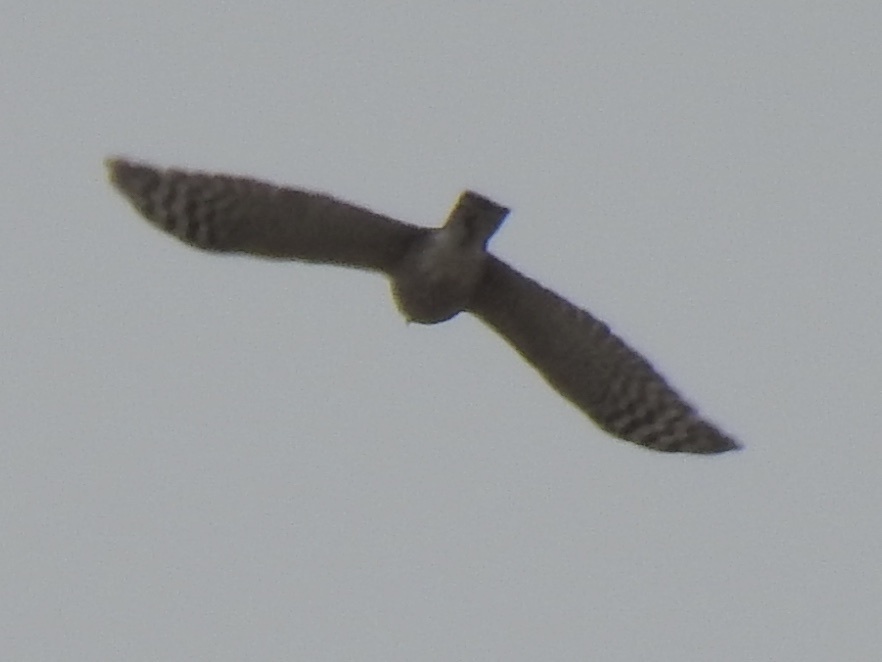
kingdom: Animalia
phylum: Chordata
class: Aves
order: Accipitriformes
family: Accipitridae
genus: Accipiter
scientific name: Accipiter cooperii
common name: Cooper's hawk
